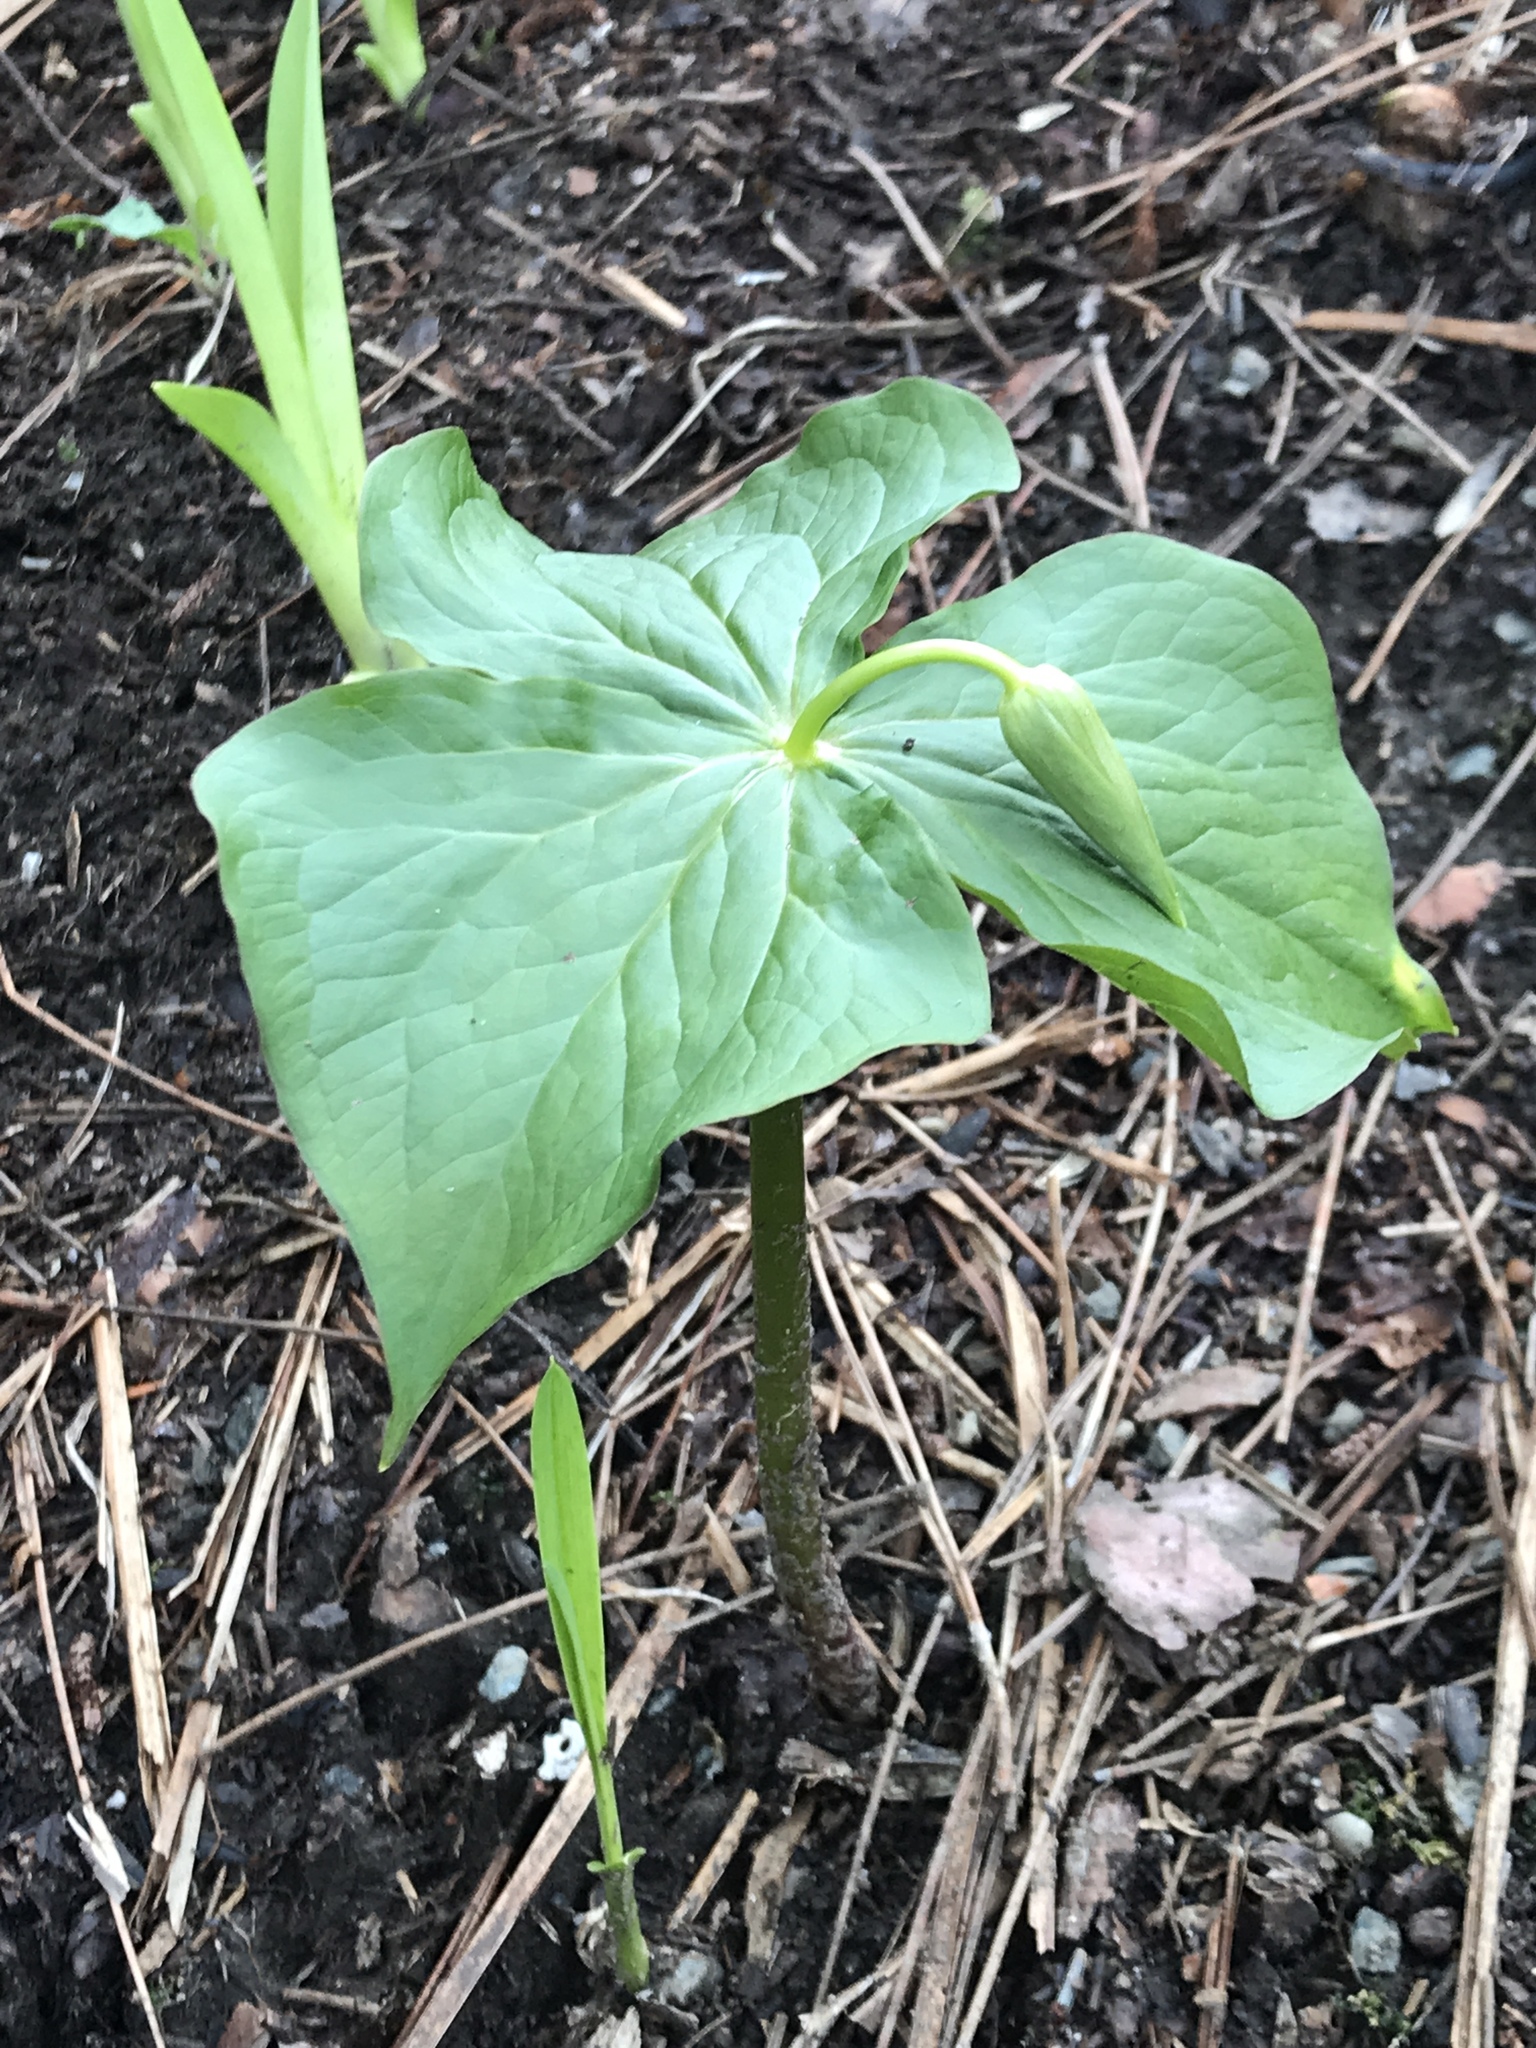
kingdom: Plantae
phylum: Tracheophyta
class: Liliopsida
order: Liliales
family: Melanthiaceae
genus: Trillium
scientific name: Trillium erectum
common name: Purple trillium
